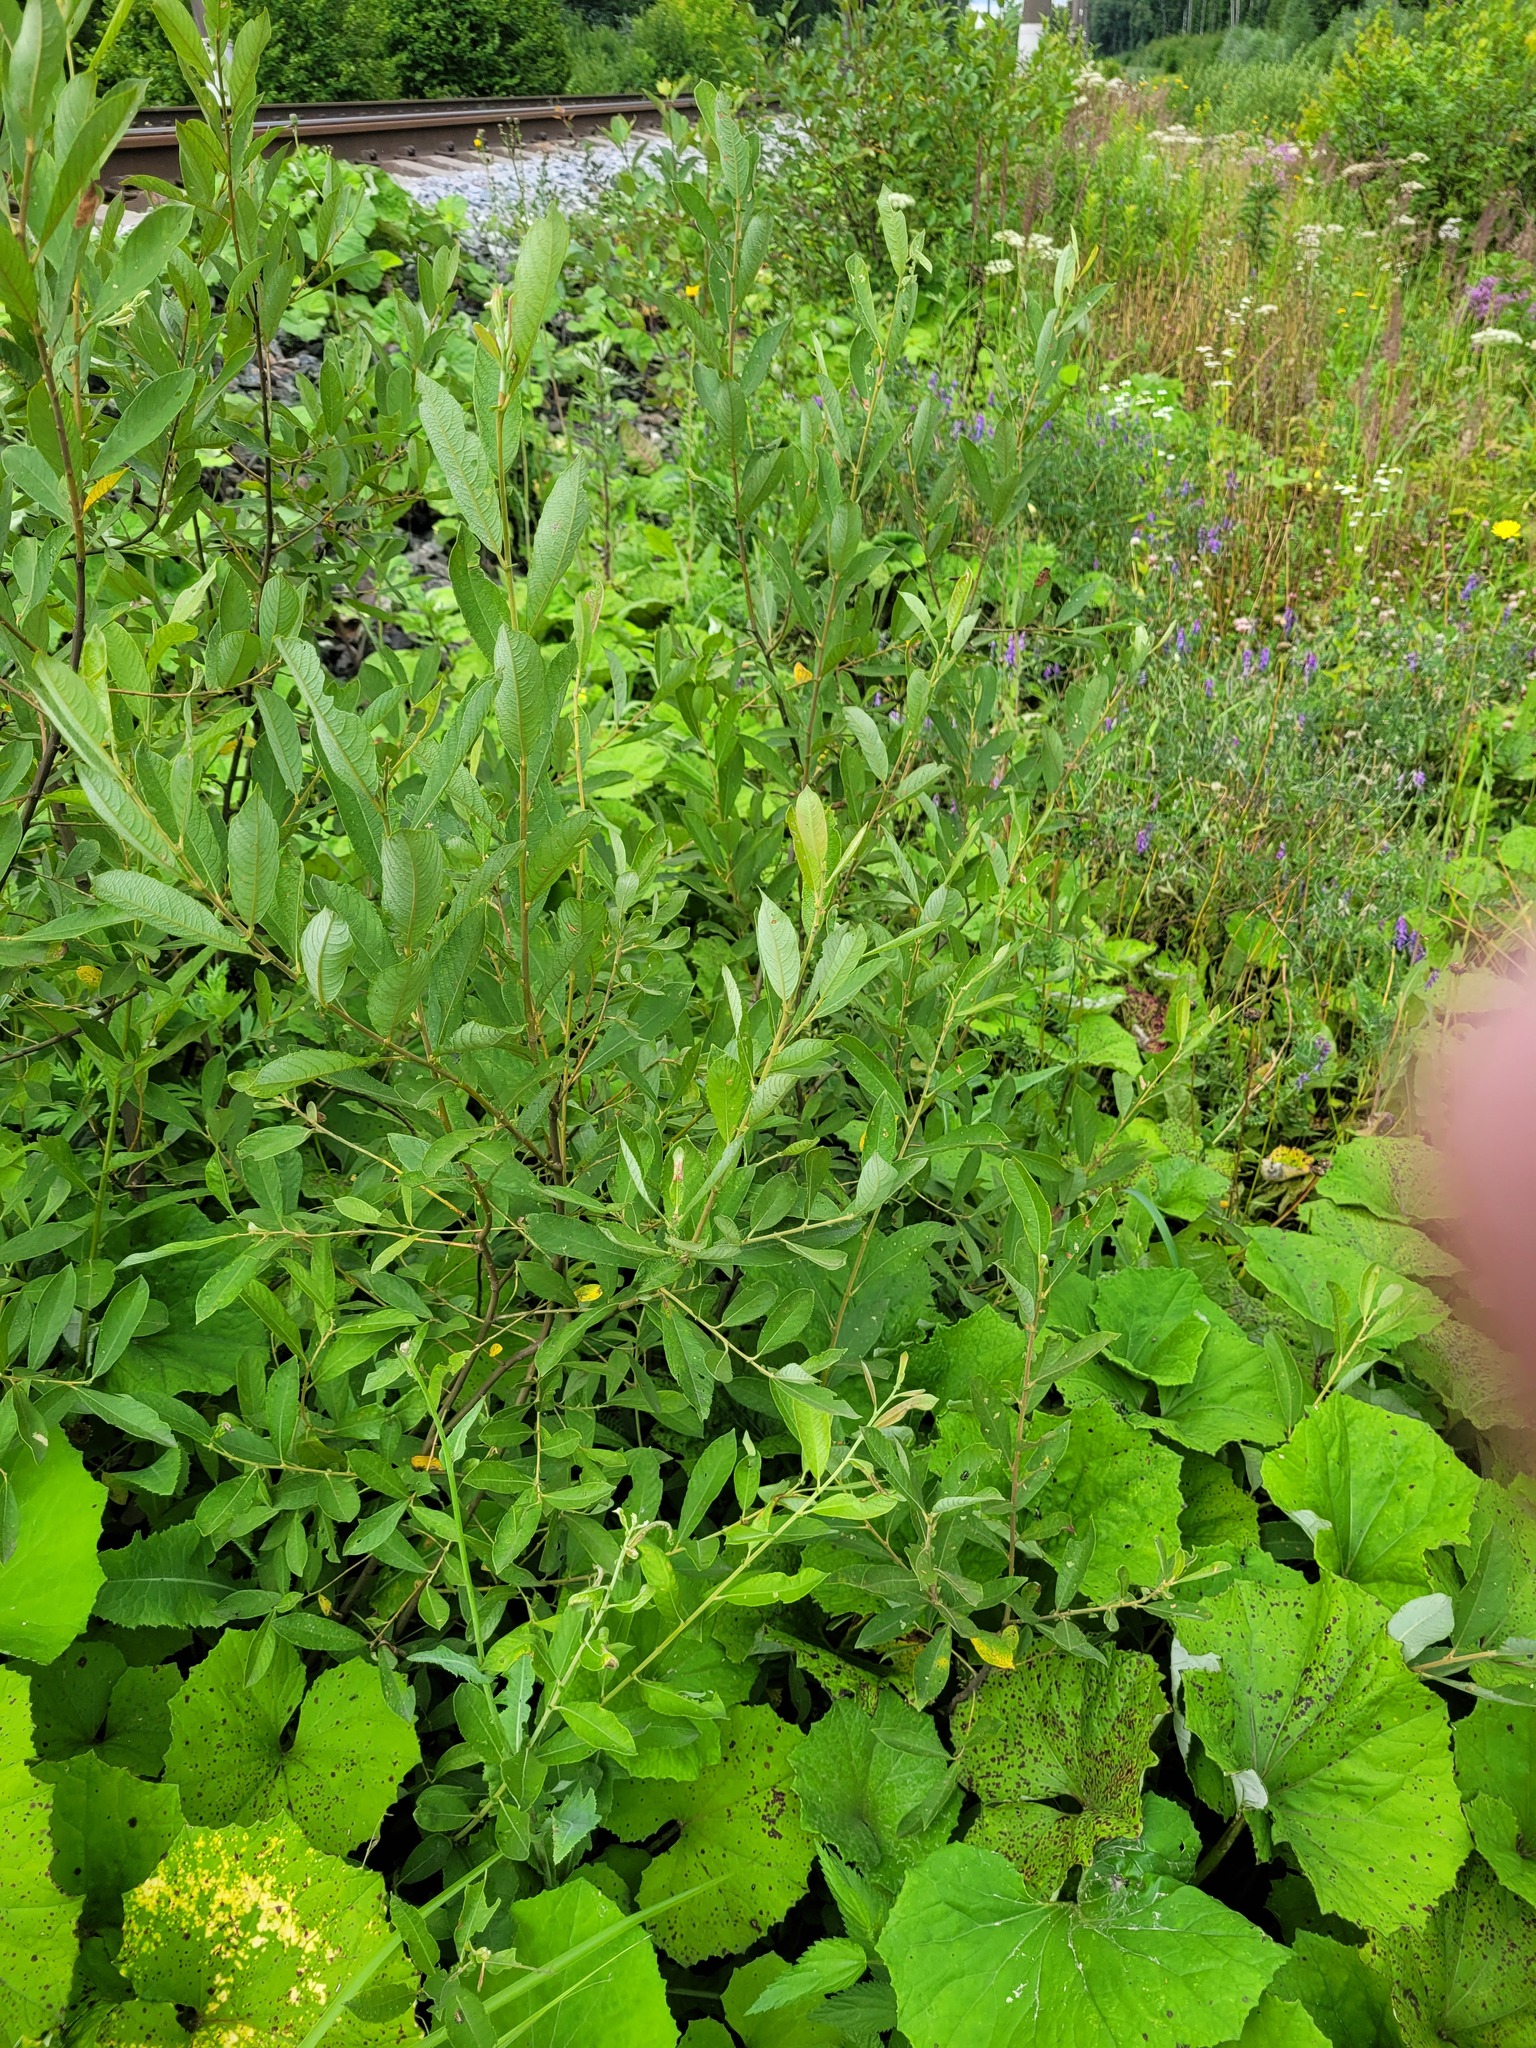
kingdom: Plantae
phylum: Tracheophyta
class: Magnoliopsida
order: Malpighiales
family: Salicaceae
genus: Salix
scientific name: Salix cinerea
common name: Common sallow
